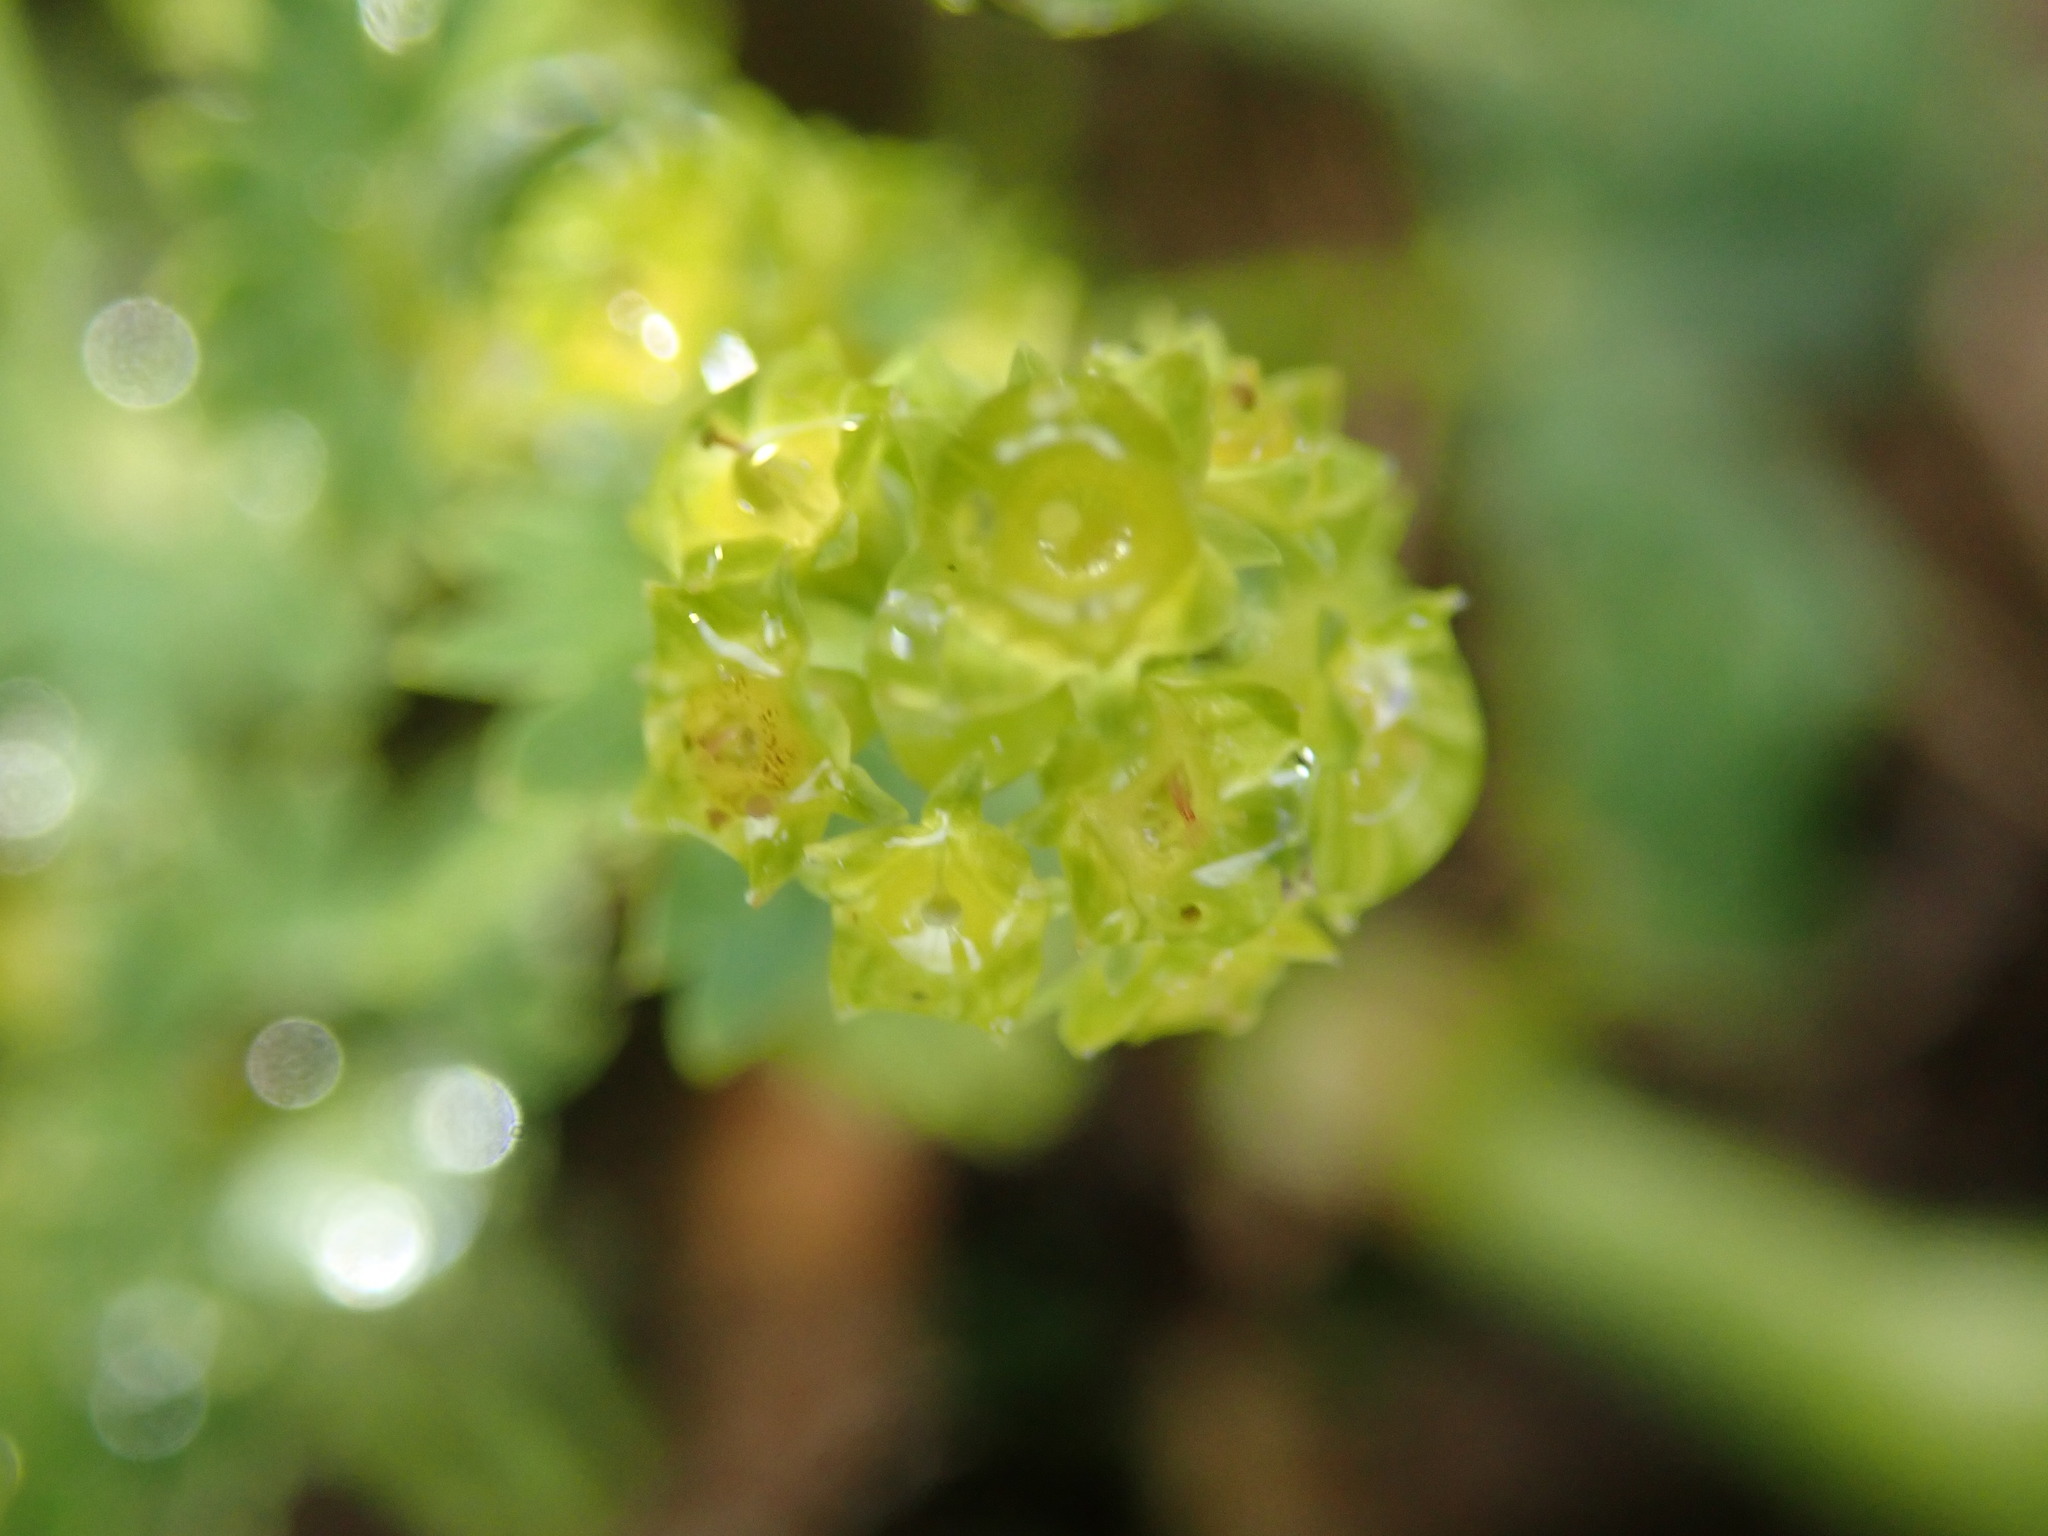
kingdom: Plantae
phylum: Tracheophyta
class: Magnoliopsida
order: Rosales
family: Rosaceae
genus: Alchemilla
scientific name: Alchemilla xanthochlora
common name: Intermediate lady's-mantle
